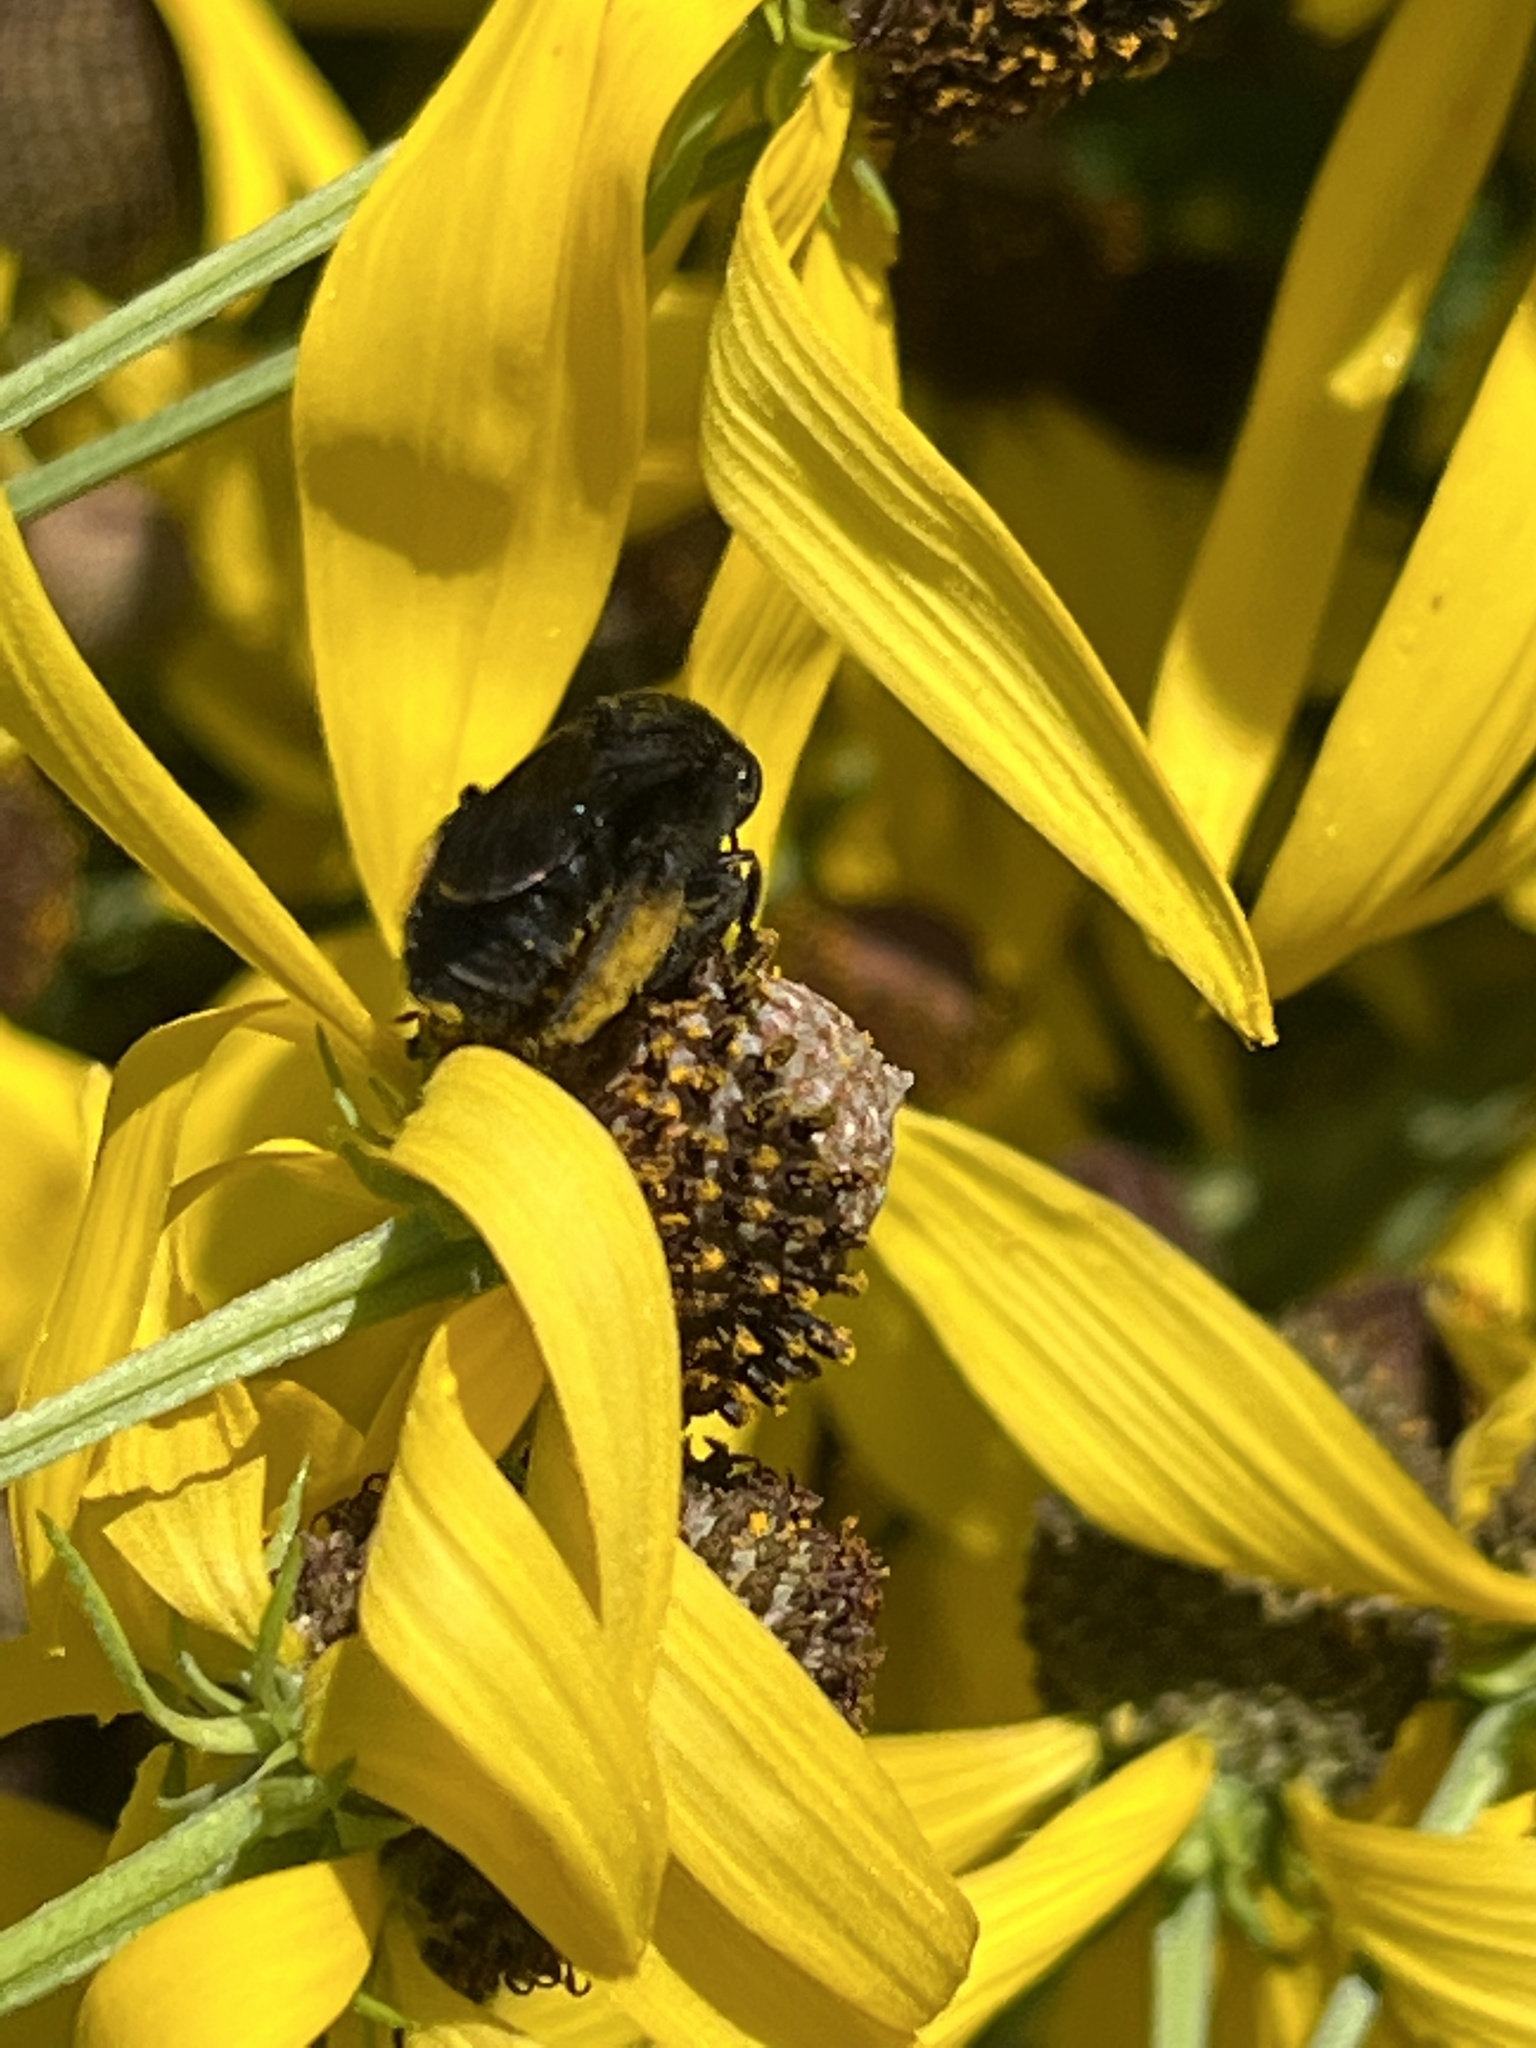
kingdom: Animalia
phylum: Arthropoda
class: Insecta
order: Hymenoptera
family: Apidae
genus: Melissodes
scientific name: Melissodes bimaculatus
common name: Two-spotted long-horned bee
